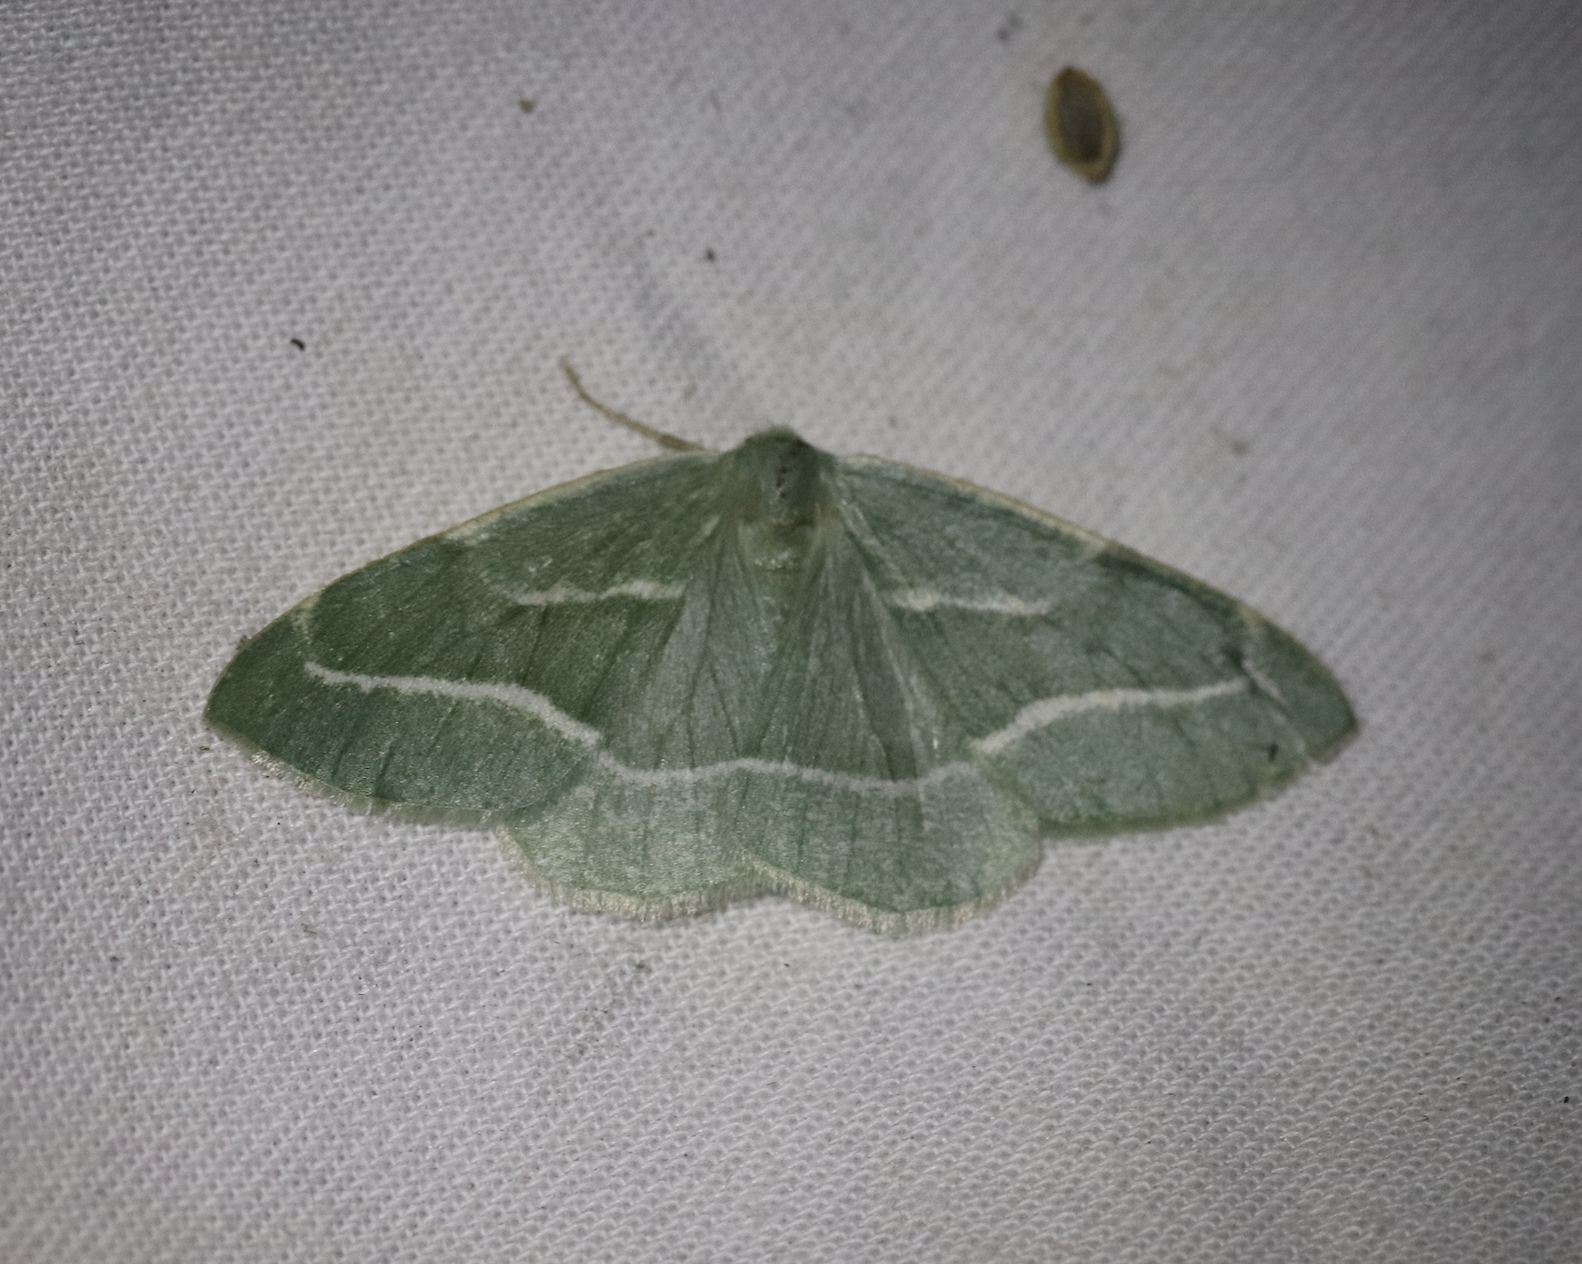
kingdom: Animalia
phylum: Arthropoda
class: Insecta
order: Lepidoptera
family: Geometridae
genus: Hylaea
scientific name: Hylaea fasciaria
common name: Barred red
